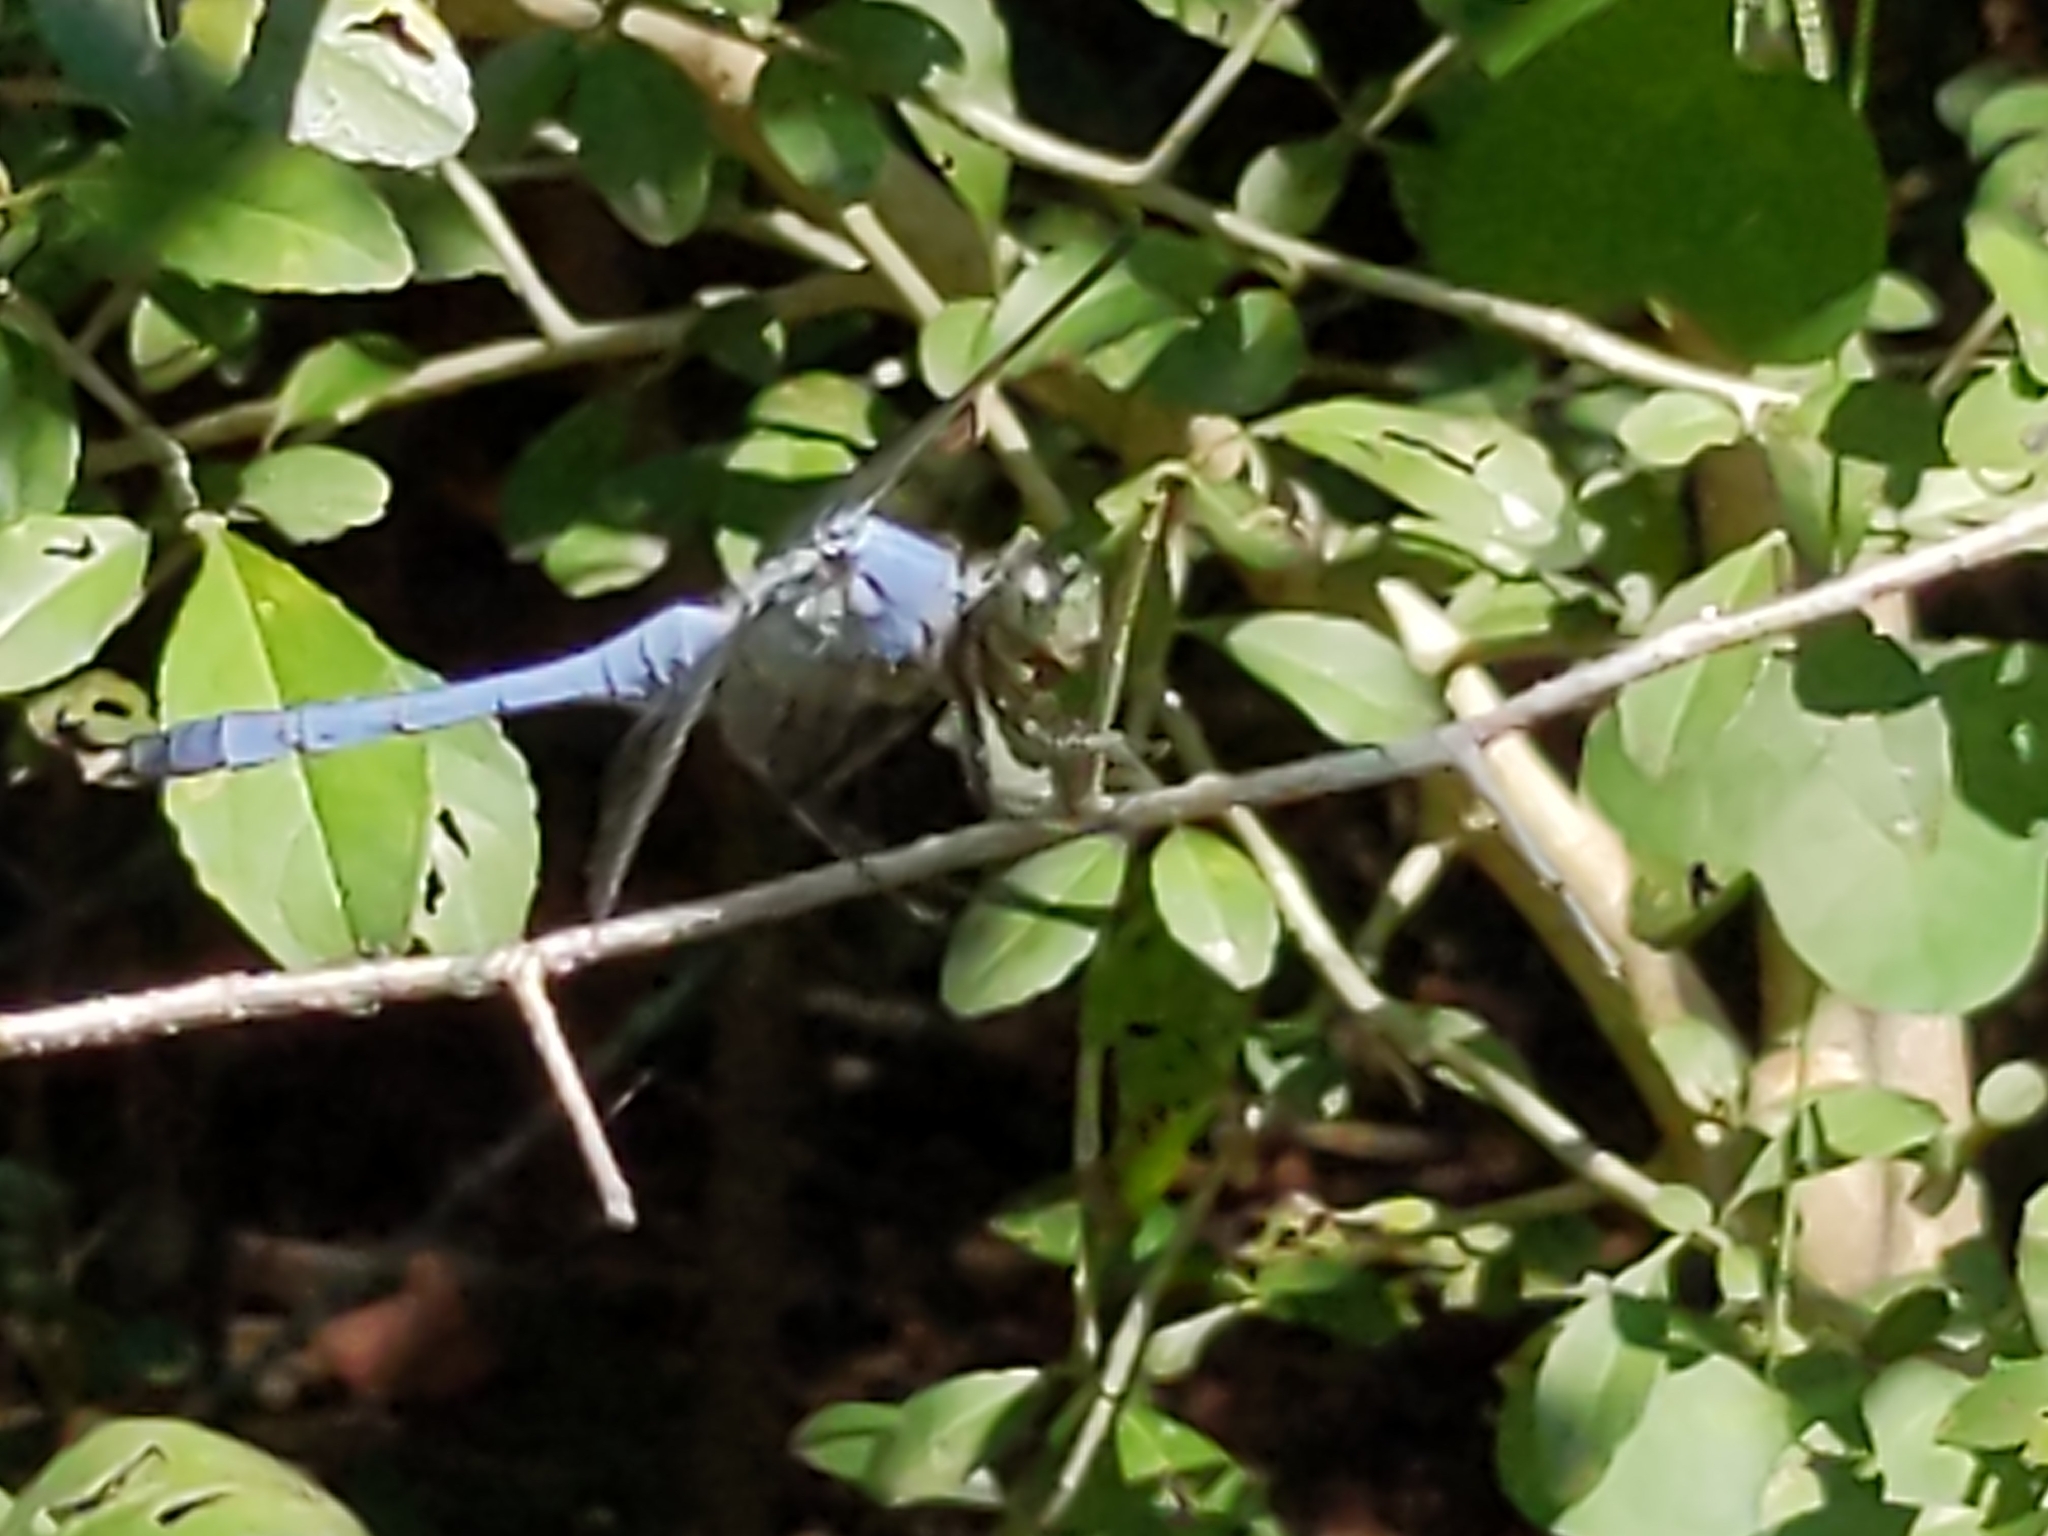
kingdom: Animalia
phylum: Arthropoda
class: Insecta
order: Odonata
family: Libellulidae
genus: Erythemis
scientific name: Erythemis simplicicollis
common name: Eastern pondhawk
